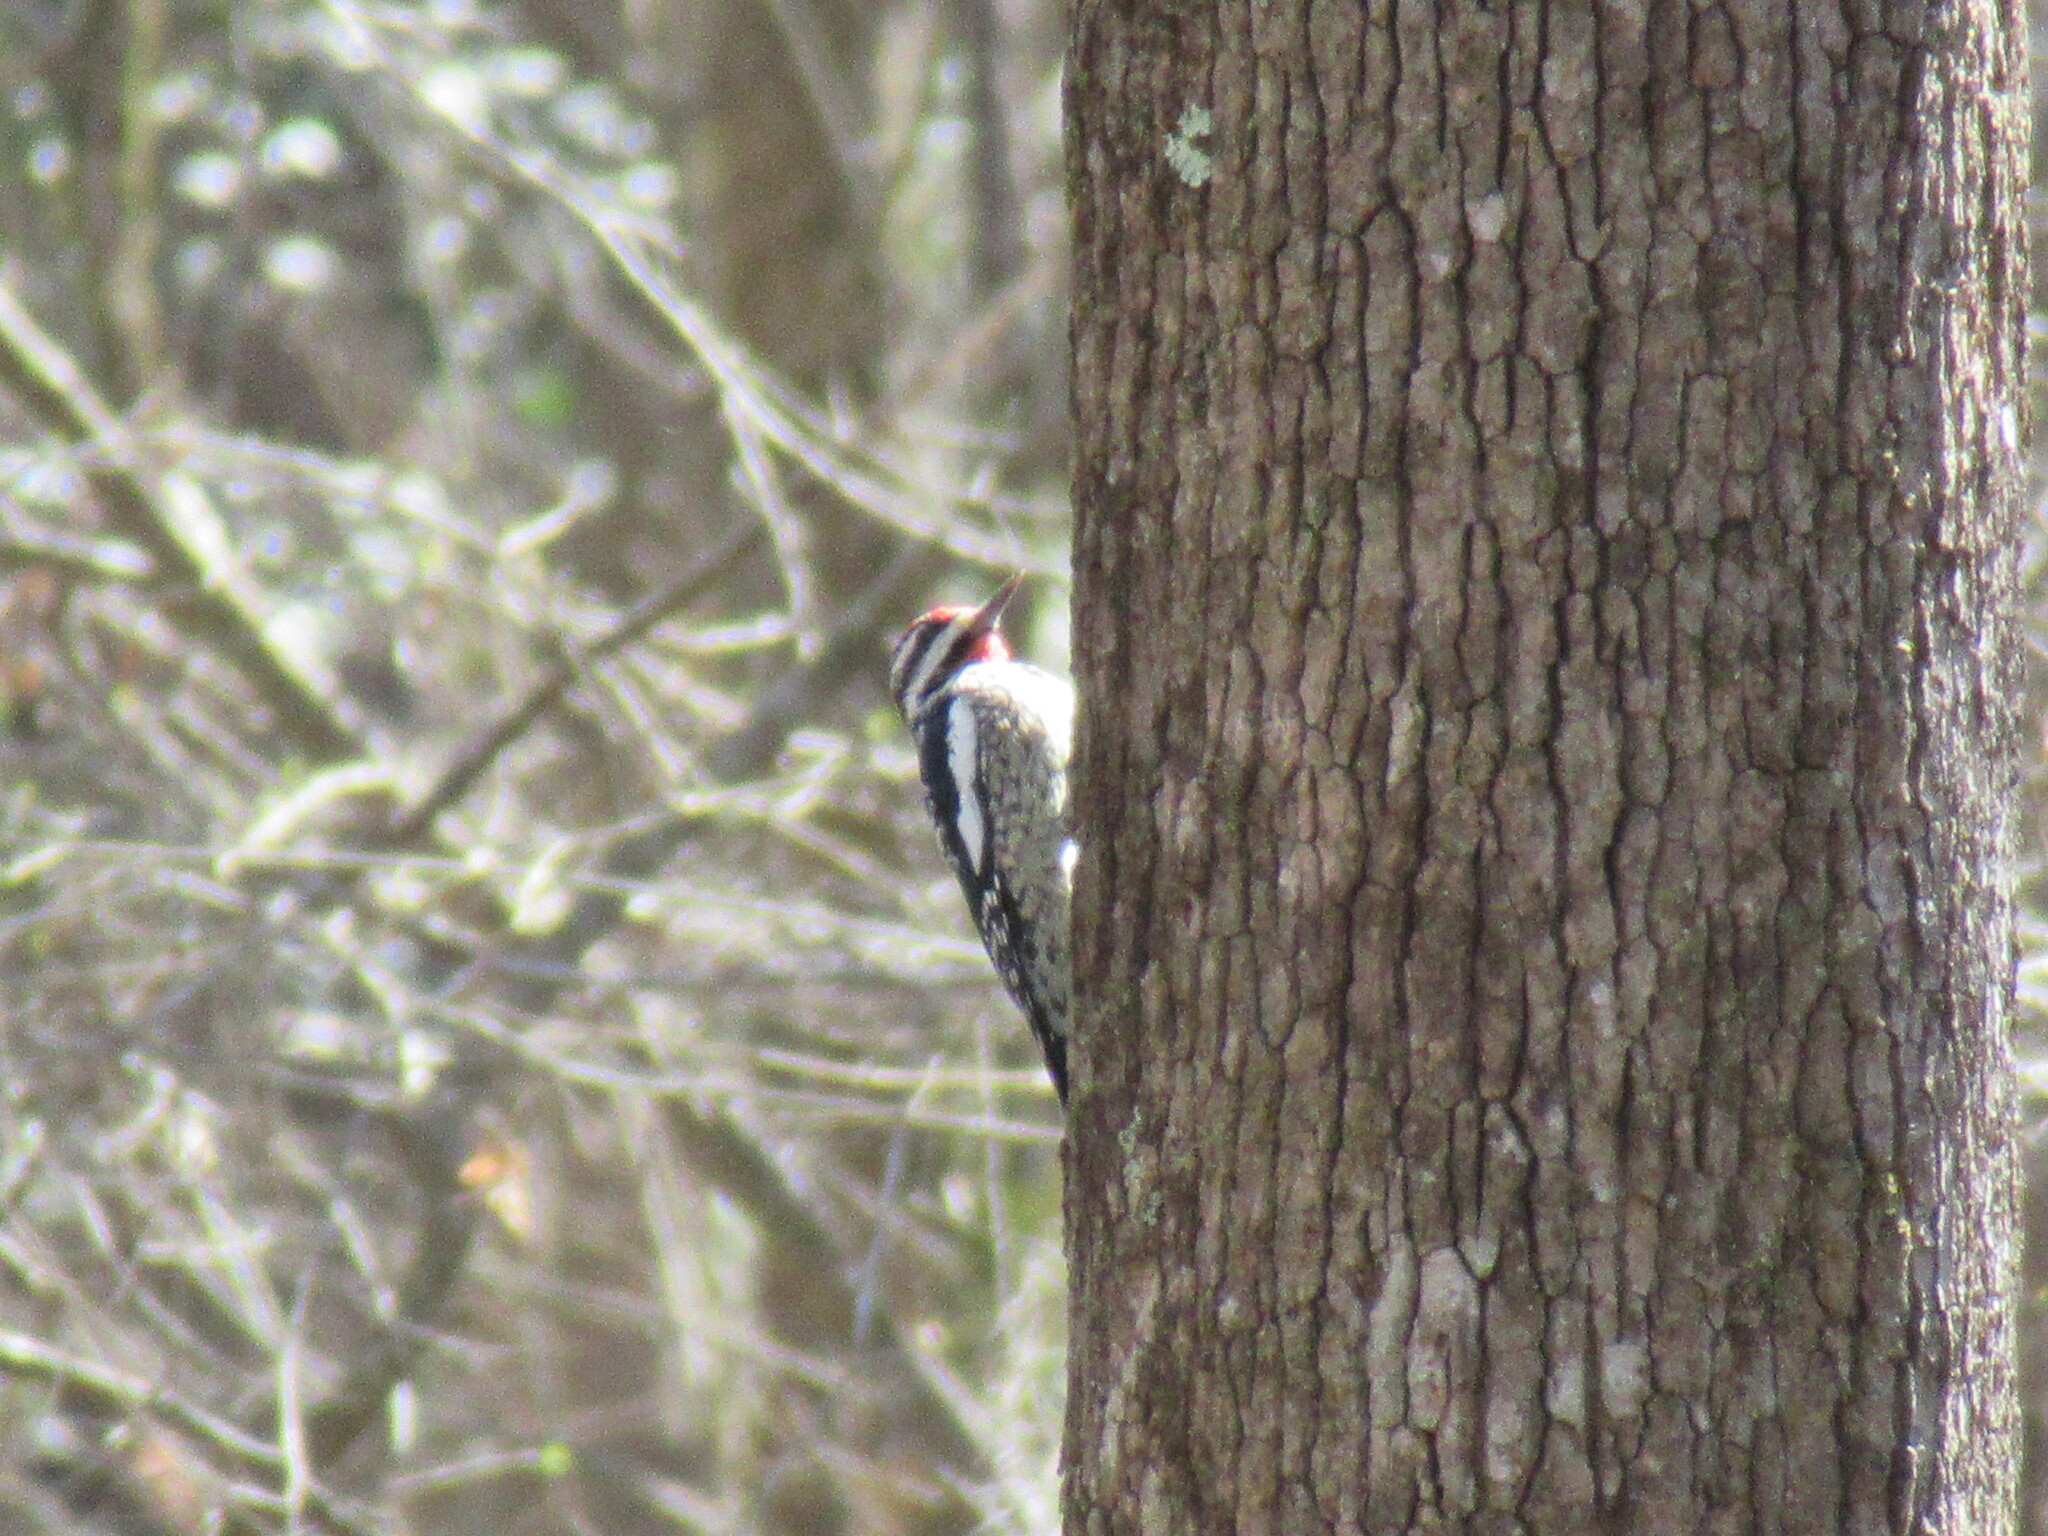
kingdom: Animalia
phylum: Chordata
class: Aves
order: Piciformes
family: Picidae
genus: Sphyrapicus
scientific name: Sphyrapicus varius
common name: Yellow-bellied sapsucker
